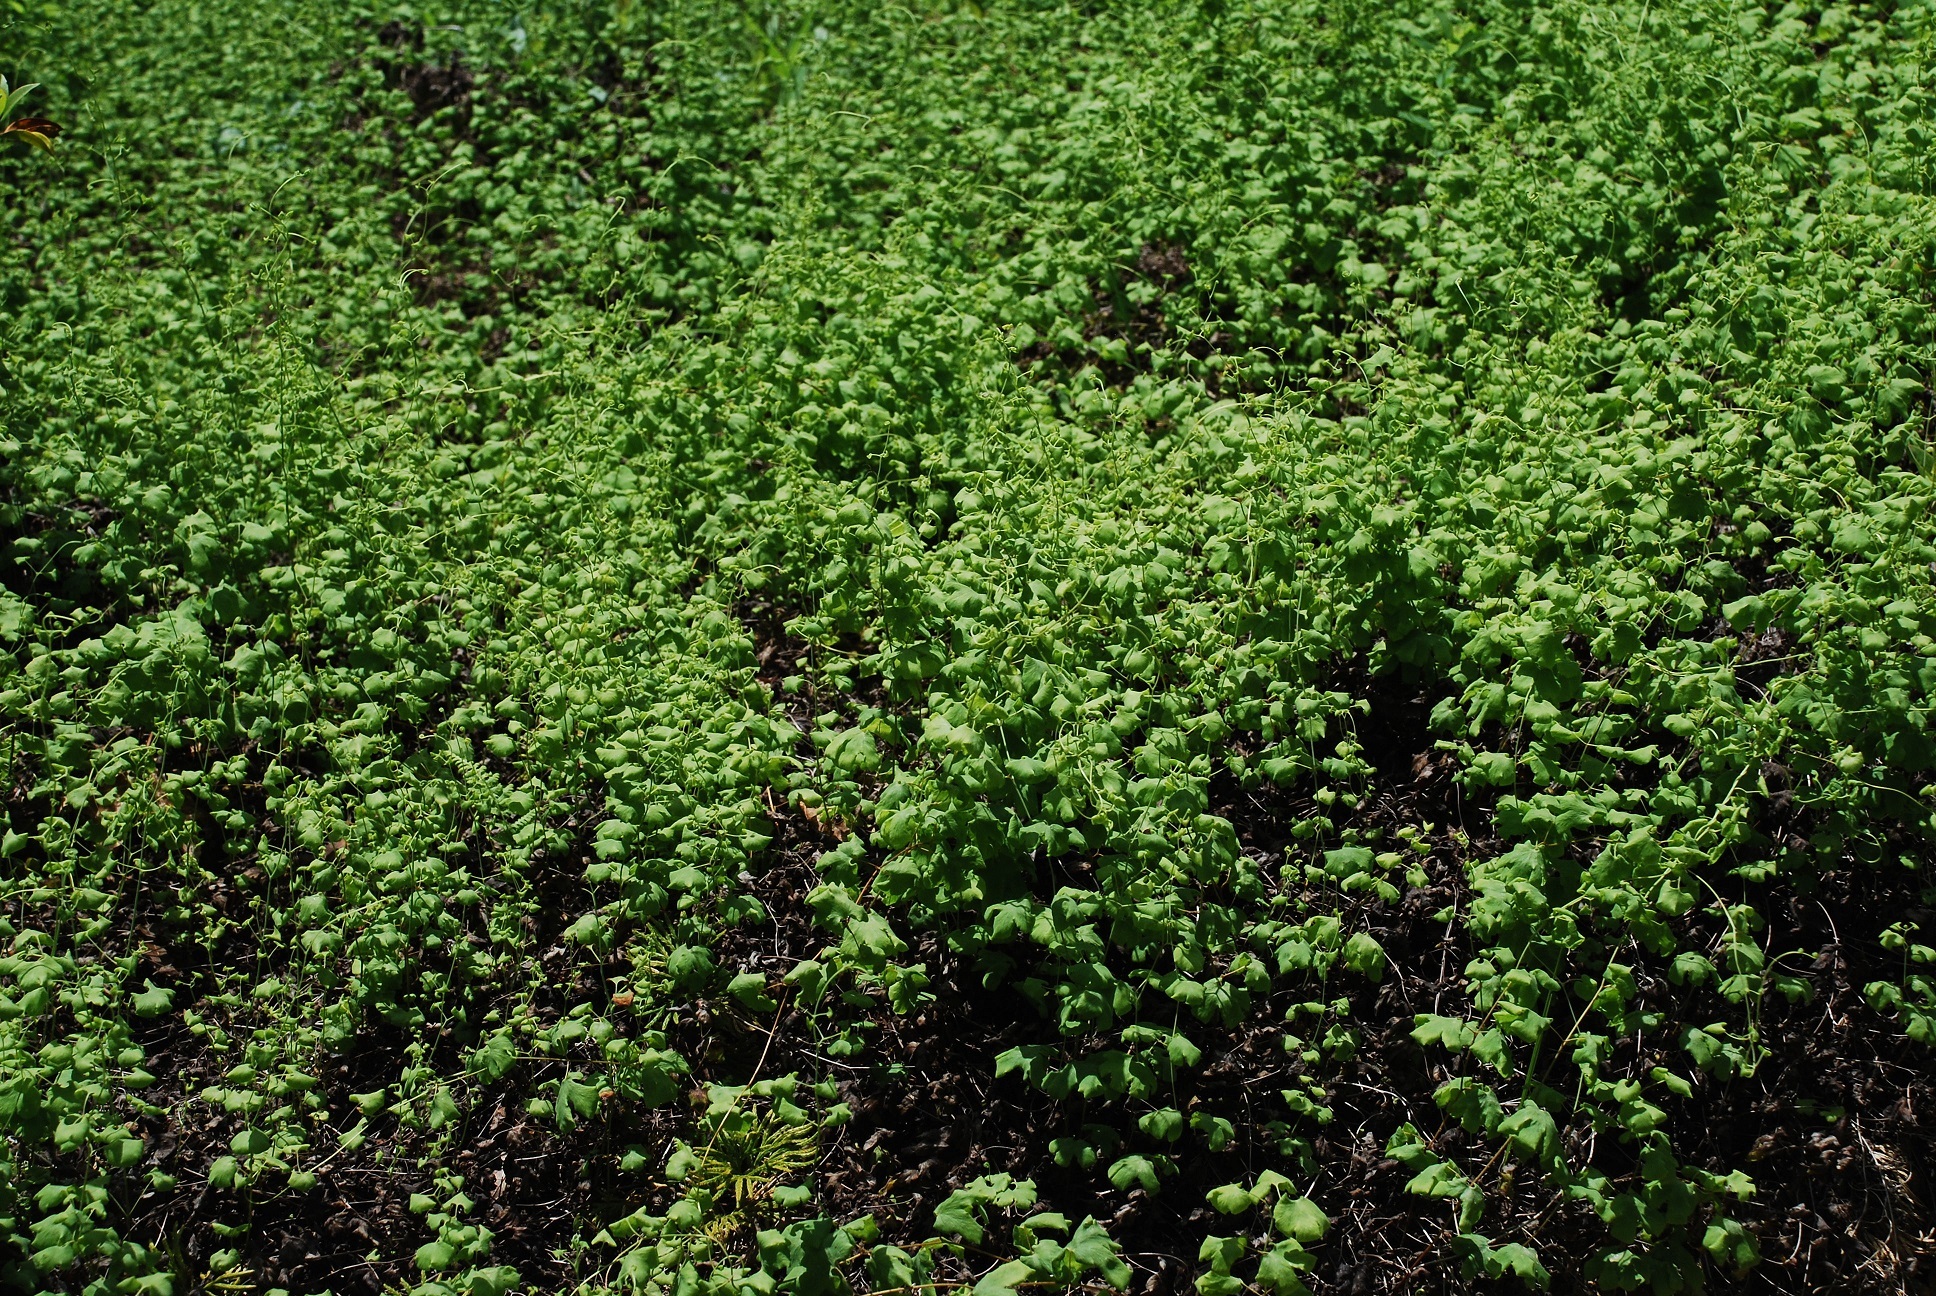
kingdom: Plantae
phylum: Tracheophyta
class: Polypodiopsida
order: Schizaeales
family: Lygodiaceae
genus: Lygodium
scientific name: Lygodium palmatum
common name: American climbing fern
